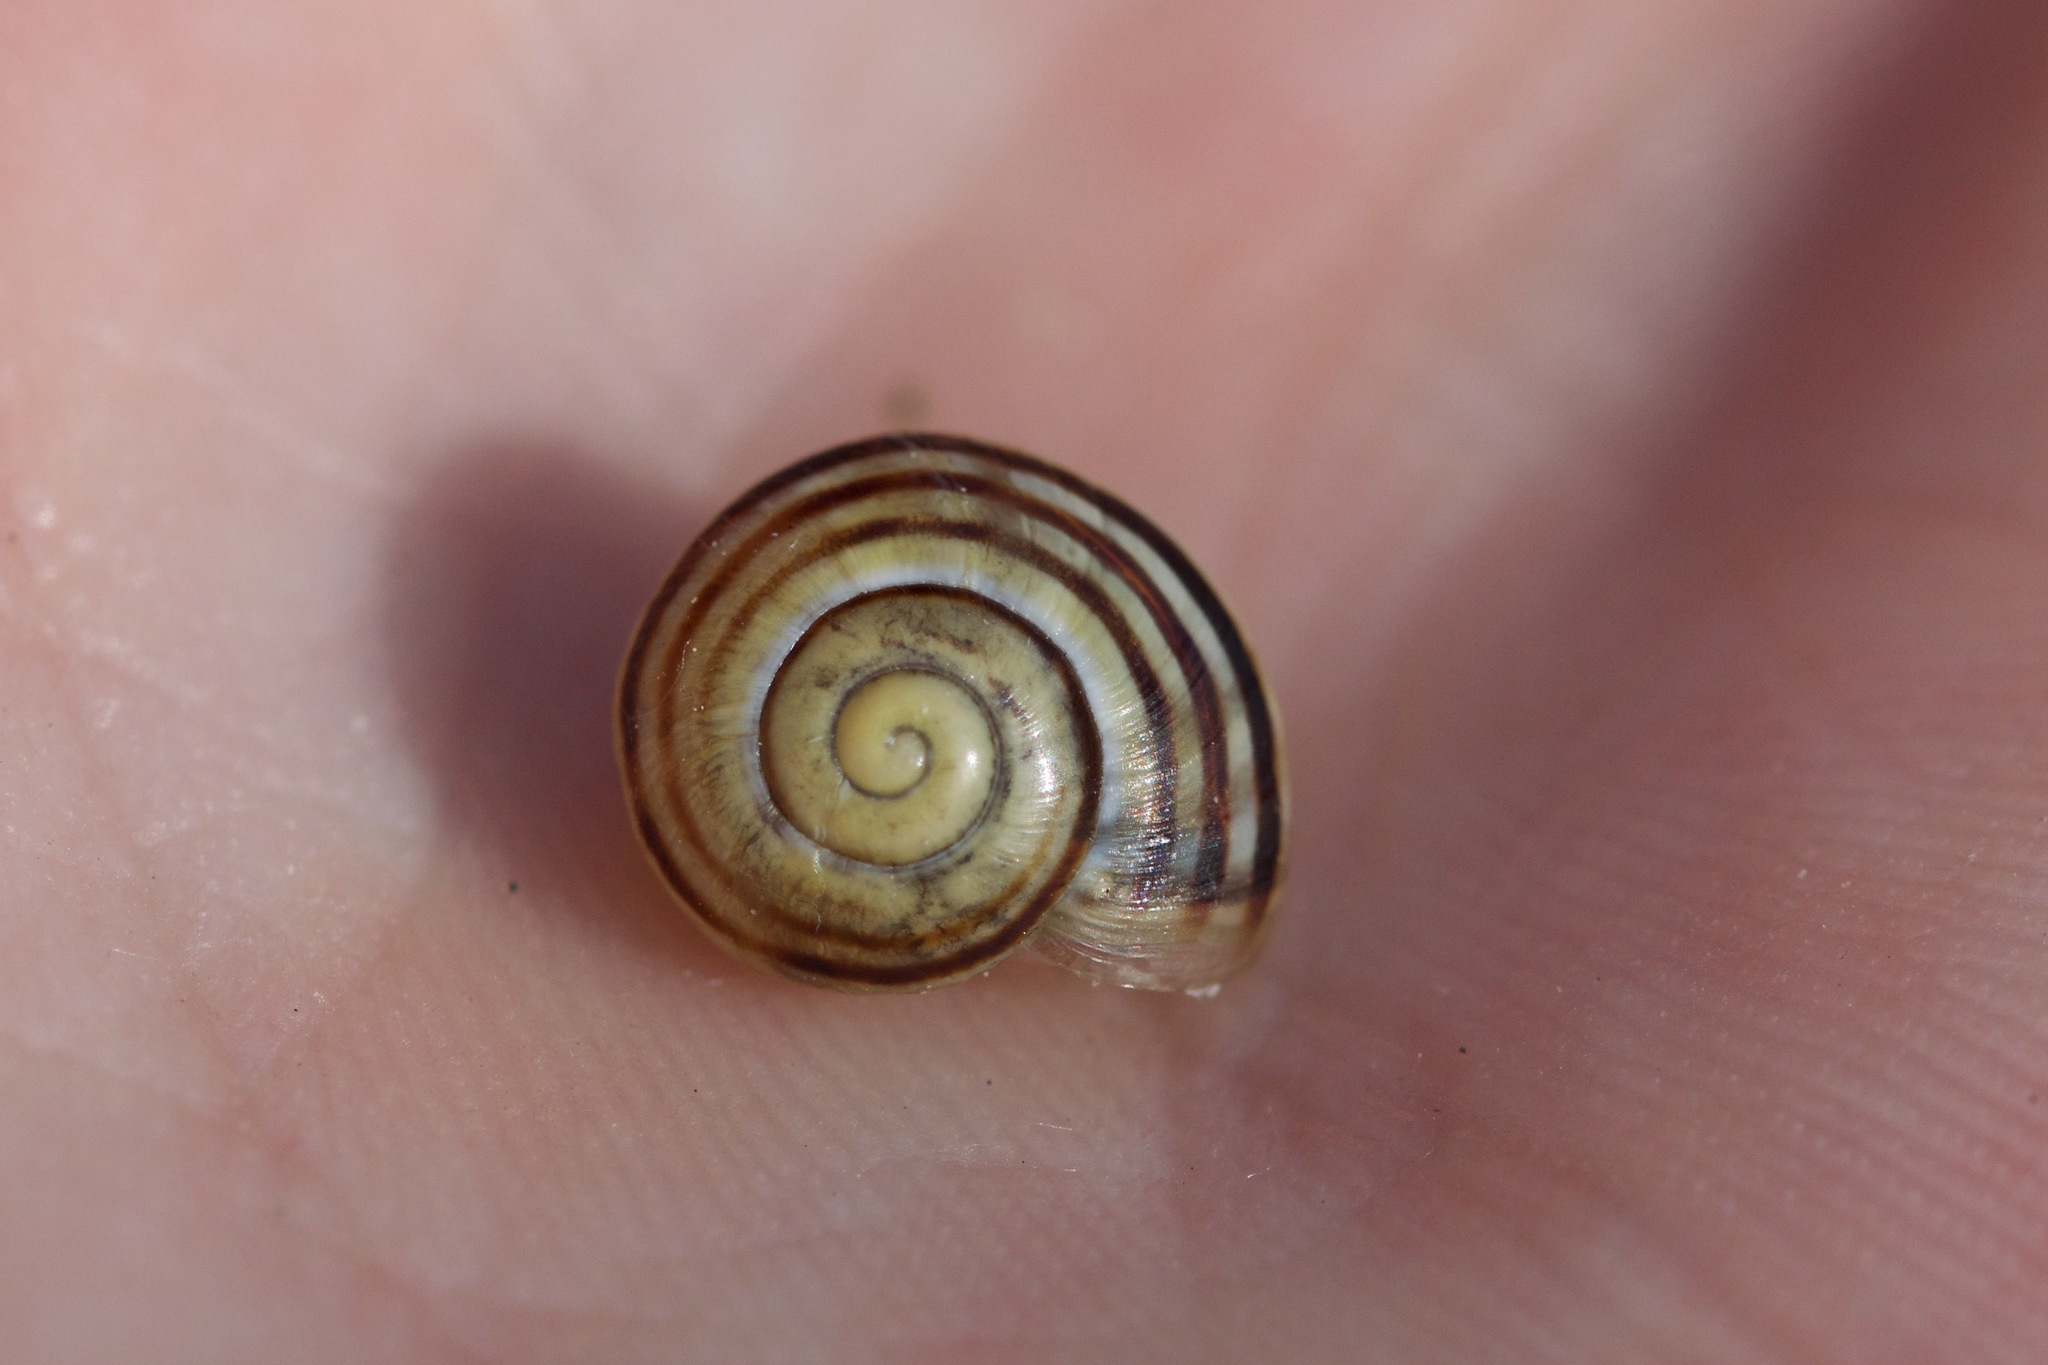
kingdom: Animalia
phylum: Mollusca
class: Gastropoda
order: Stylommatophora
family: Helicidae
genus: Cepaea
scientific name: Cepaea
